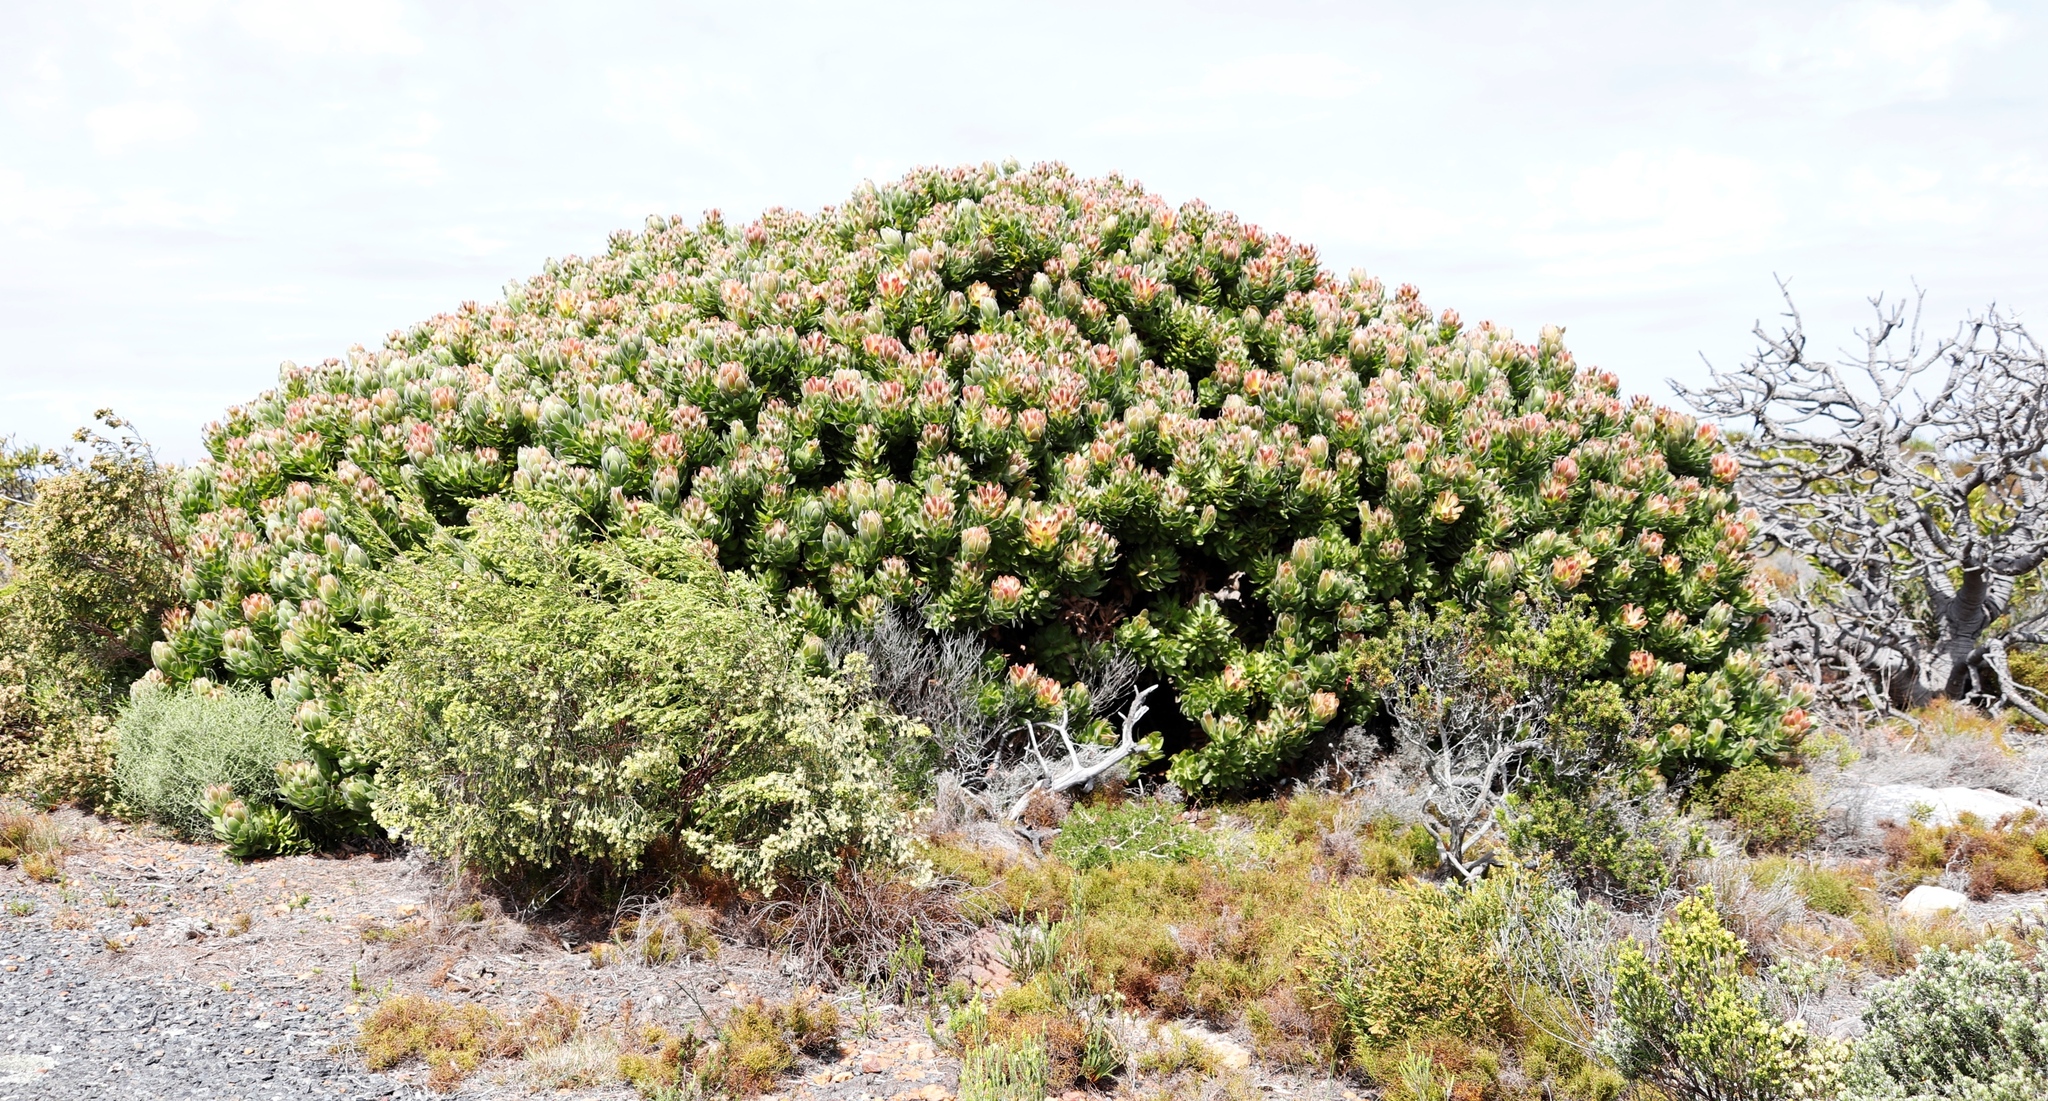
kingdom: Plantae
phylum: Tracheophyta
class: Magnoliopsida
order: Proteales
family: Proteaceae
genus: Mimetes
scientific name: Mimetes fimbriifolius
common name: Fringed bottlebrush
